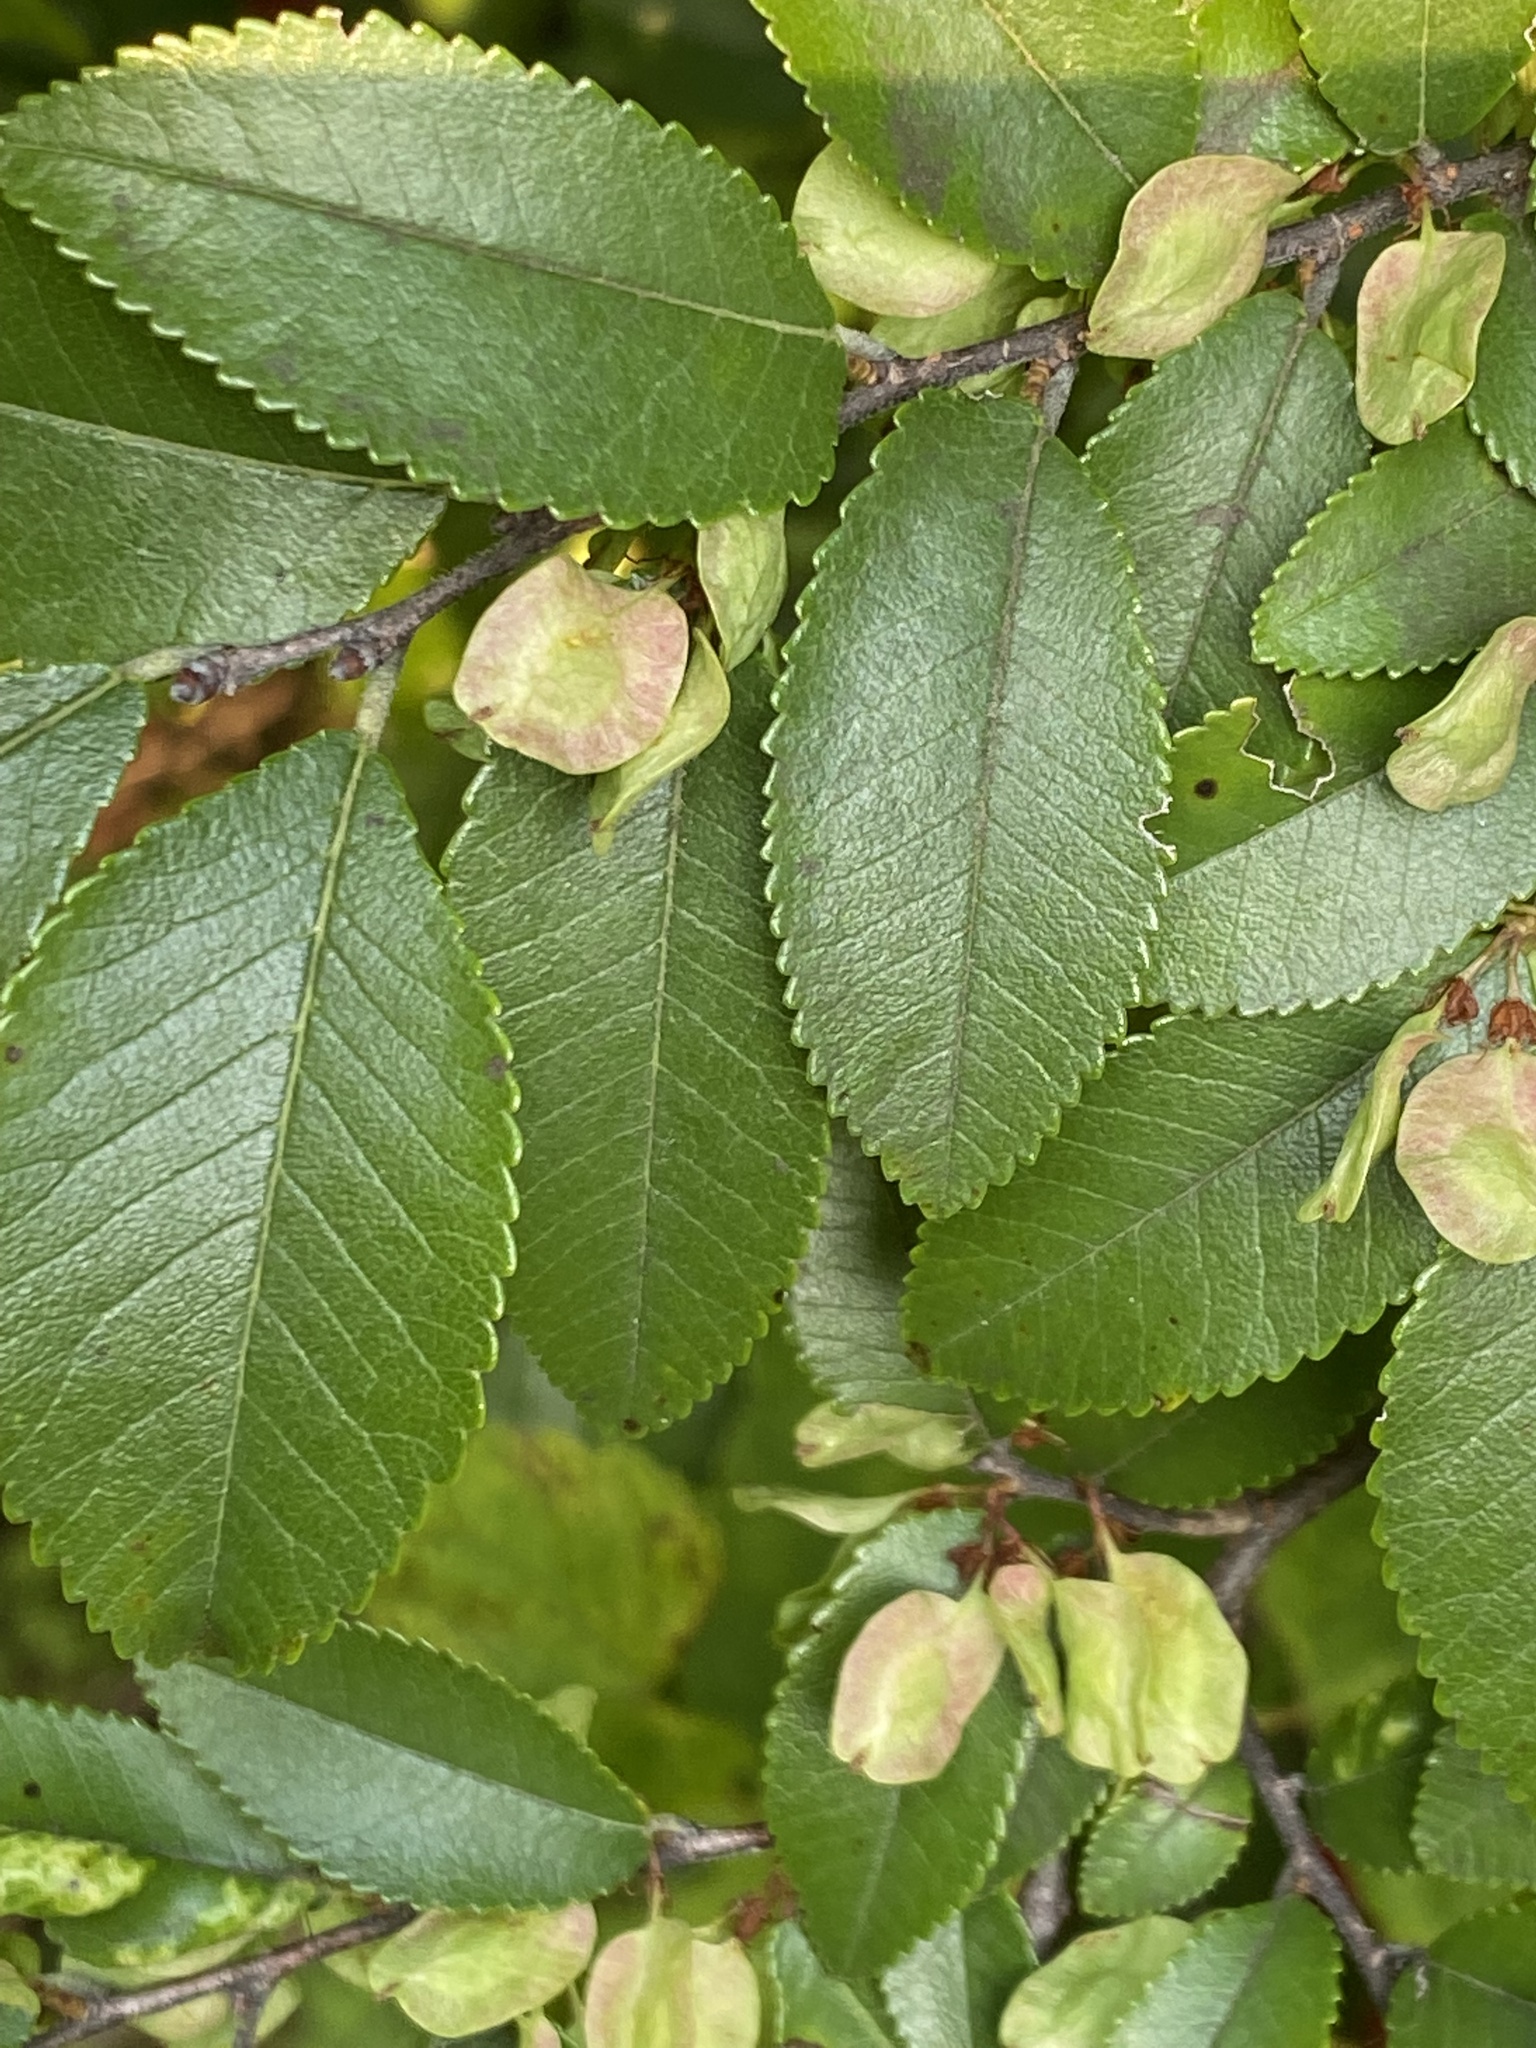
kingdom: Plantae
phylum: Tracheophyta
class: Magnoliopsida
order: Rosales
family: Ulmaceae
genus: Ulmus
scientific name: Ulmus parvifolia
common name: Chinese elm
